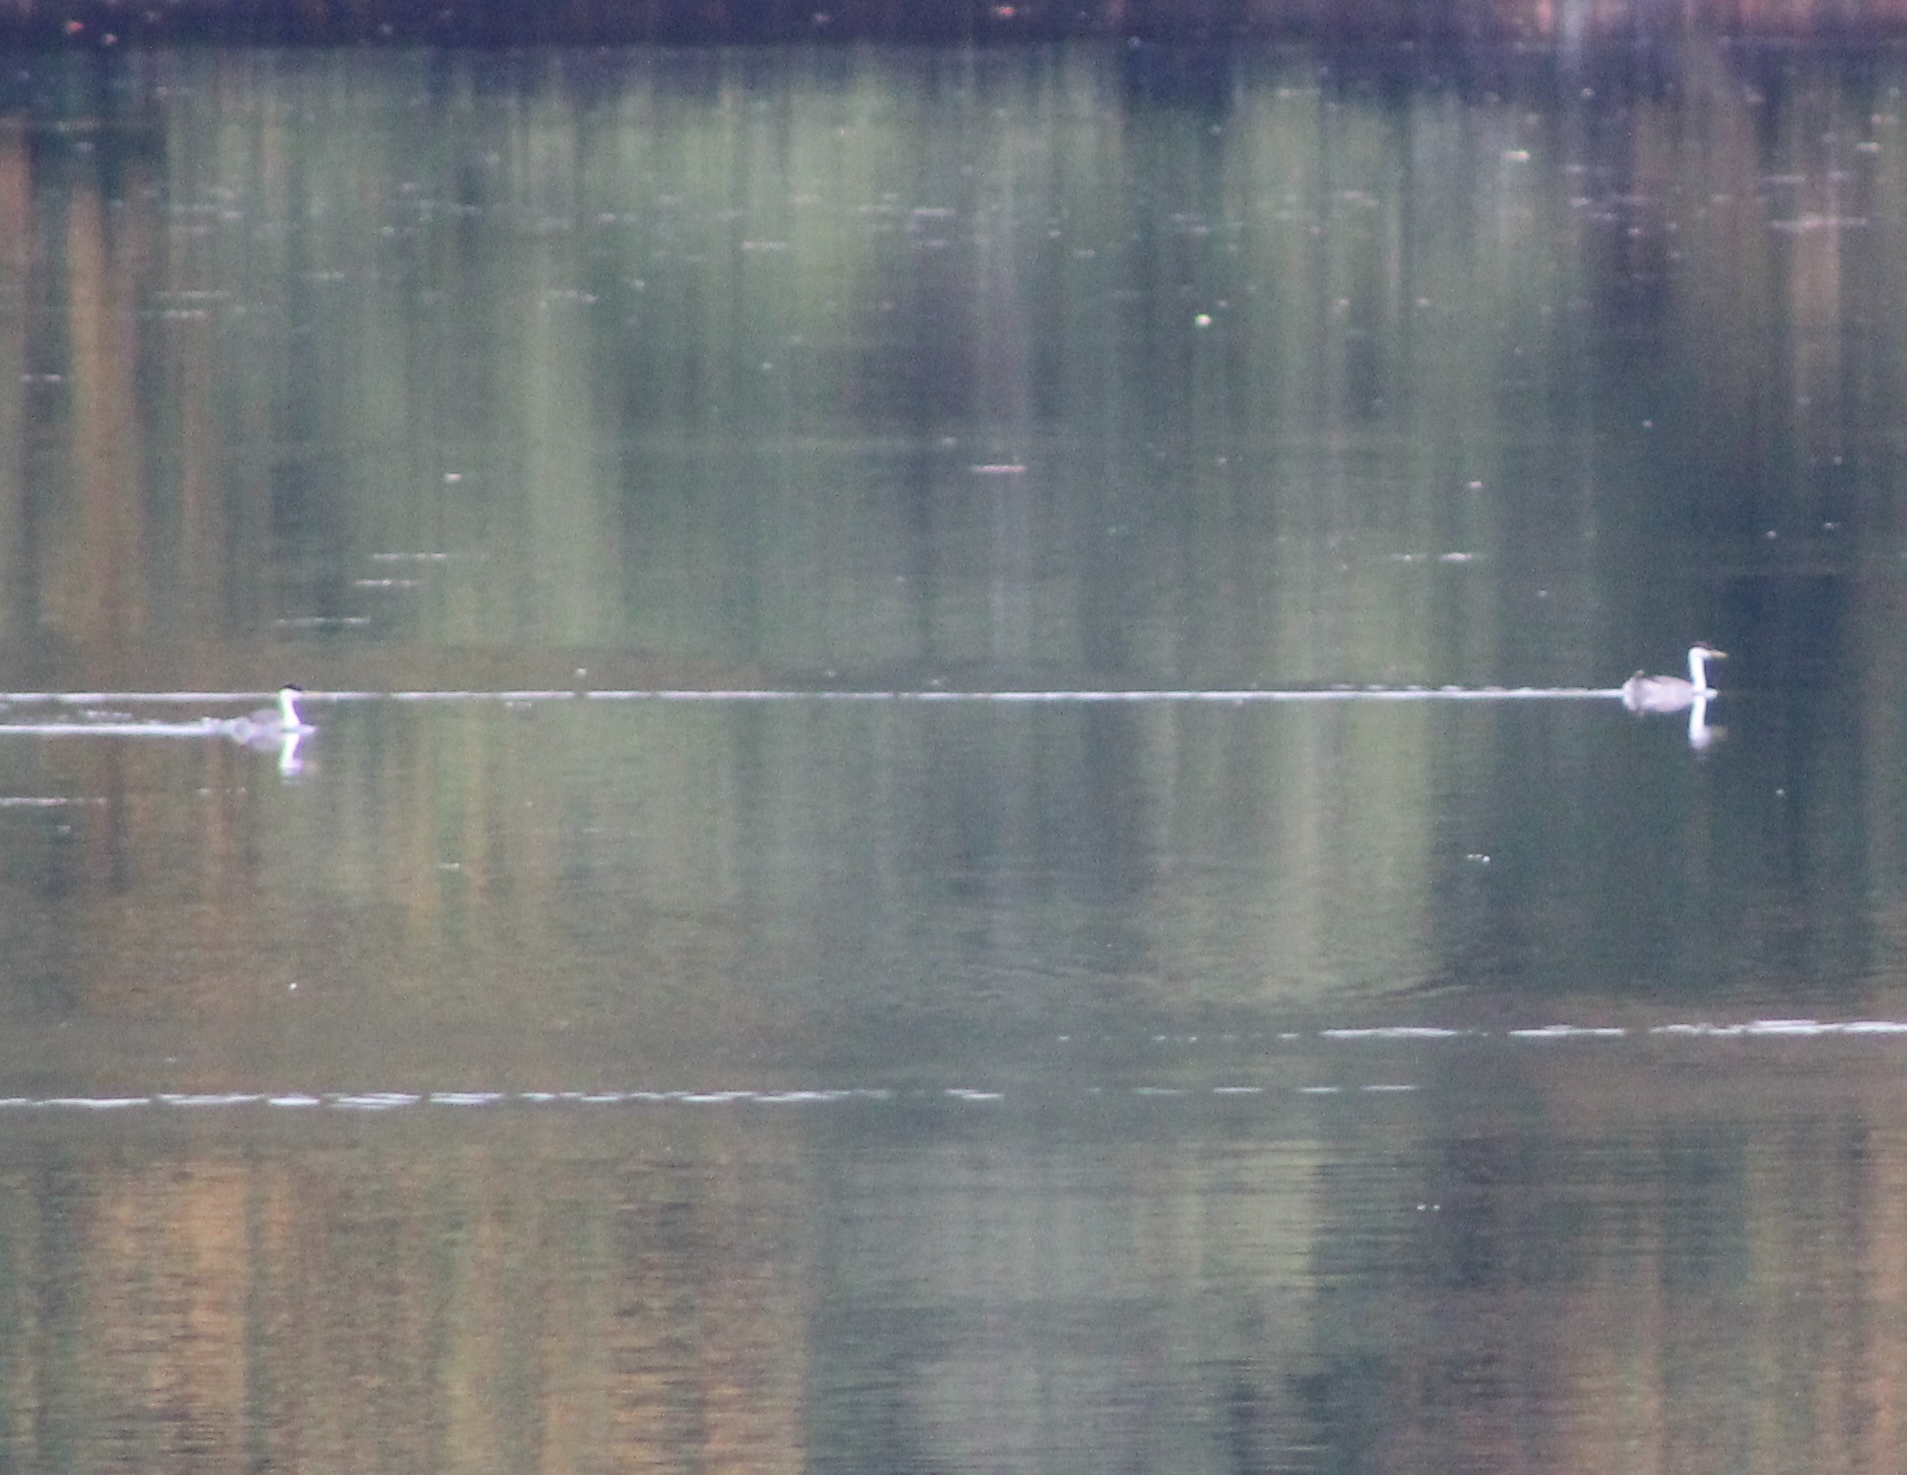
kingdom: Animalia
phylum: Chordata
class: Aves
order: Podicipediformes
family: Podicipedidae
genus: Aechmophorus
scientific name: Aechmophorus occidentalis
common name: Western grebe
